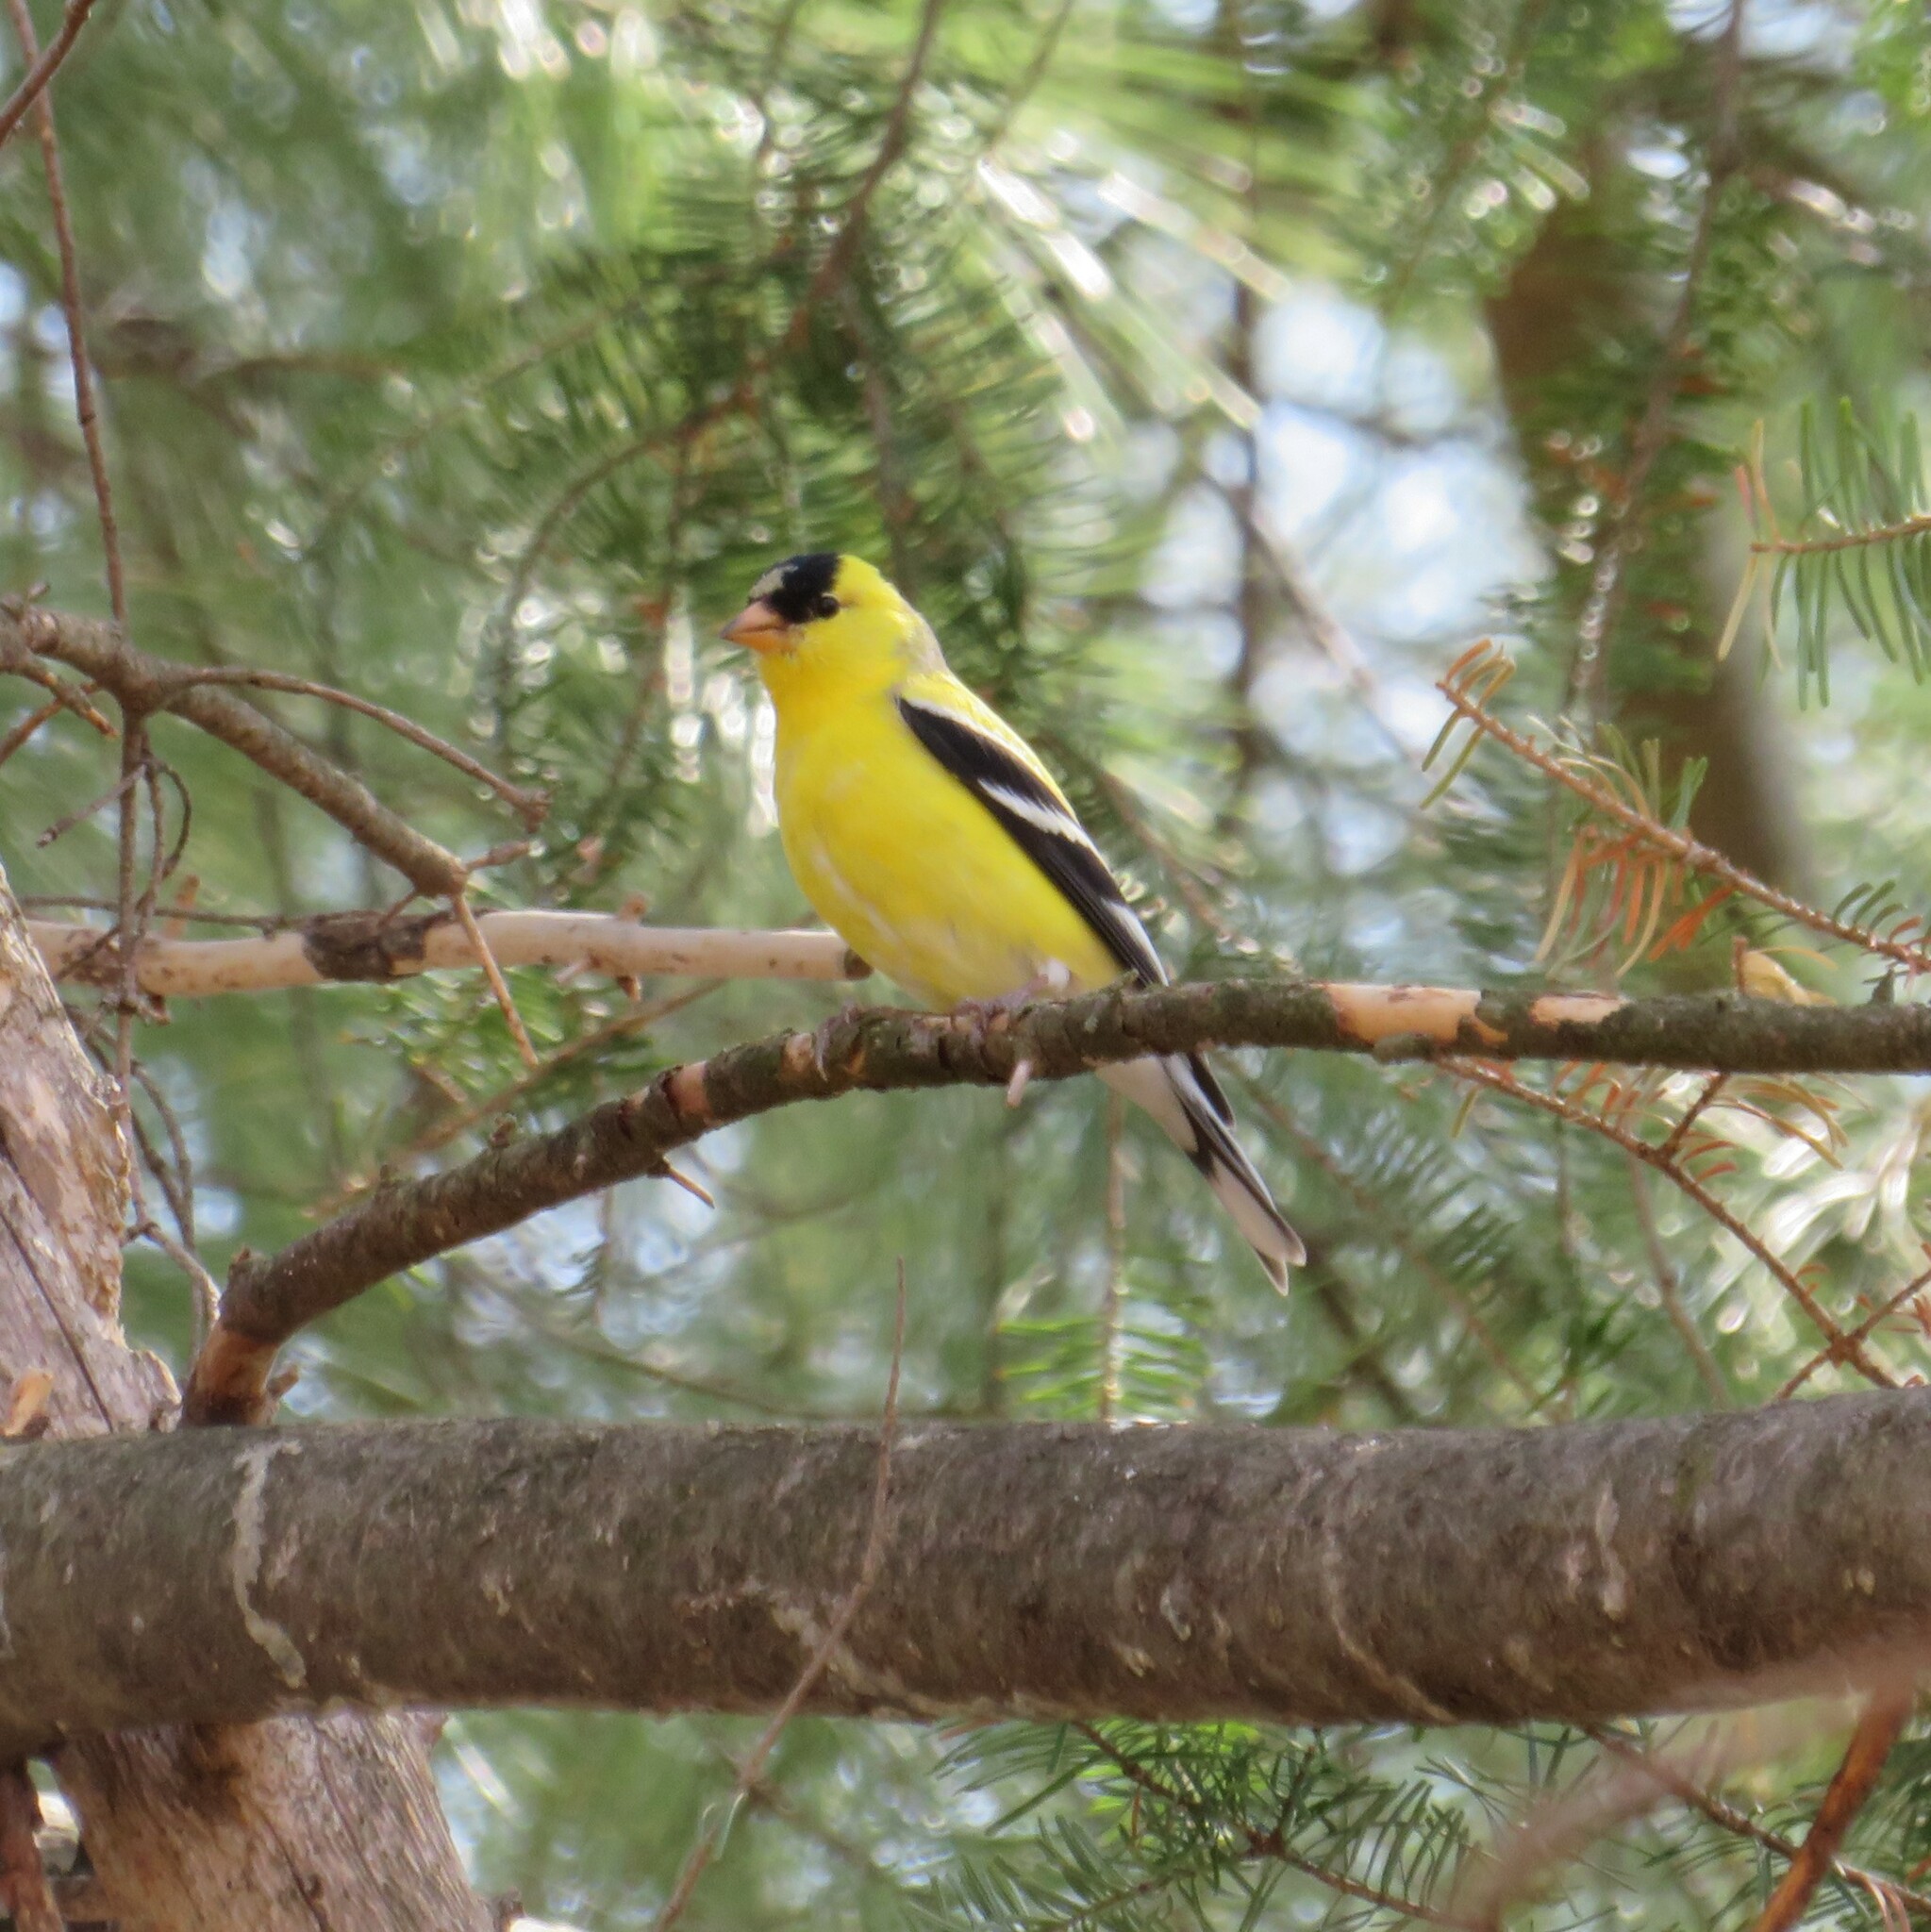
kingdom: Animalia
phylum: Chordata
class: Aves
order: Passeriformes
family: Fringillidae
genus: Spinus
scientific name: Spinus tristis
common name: American goldfinch
